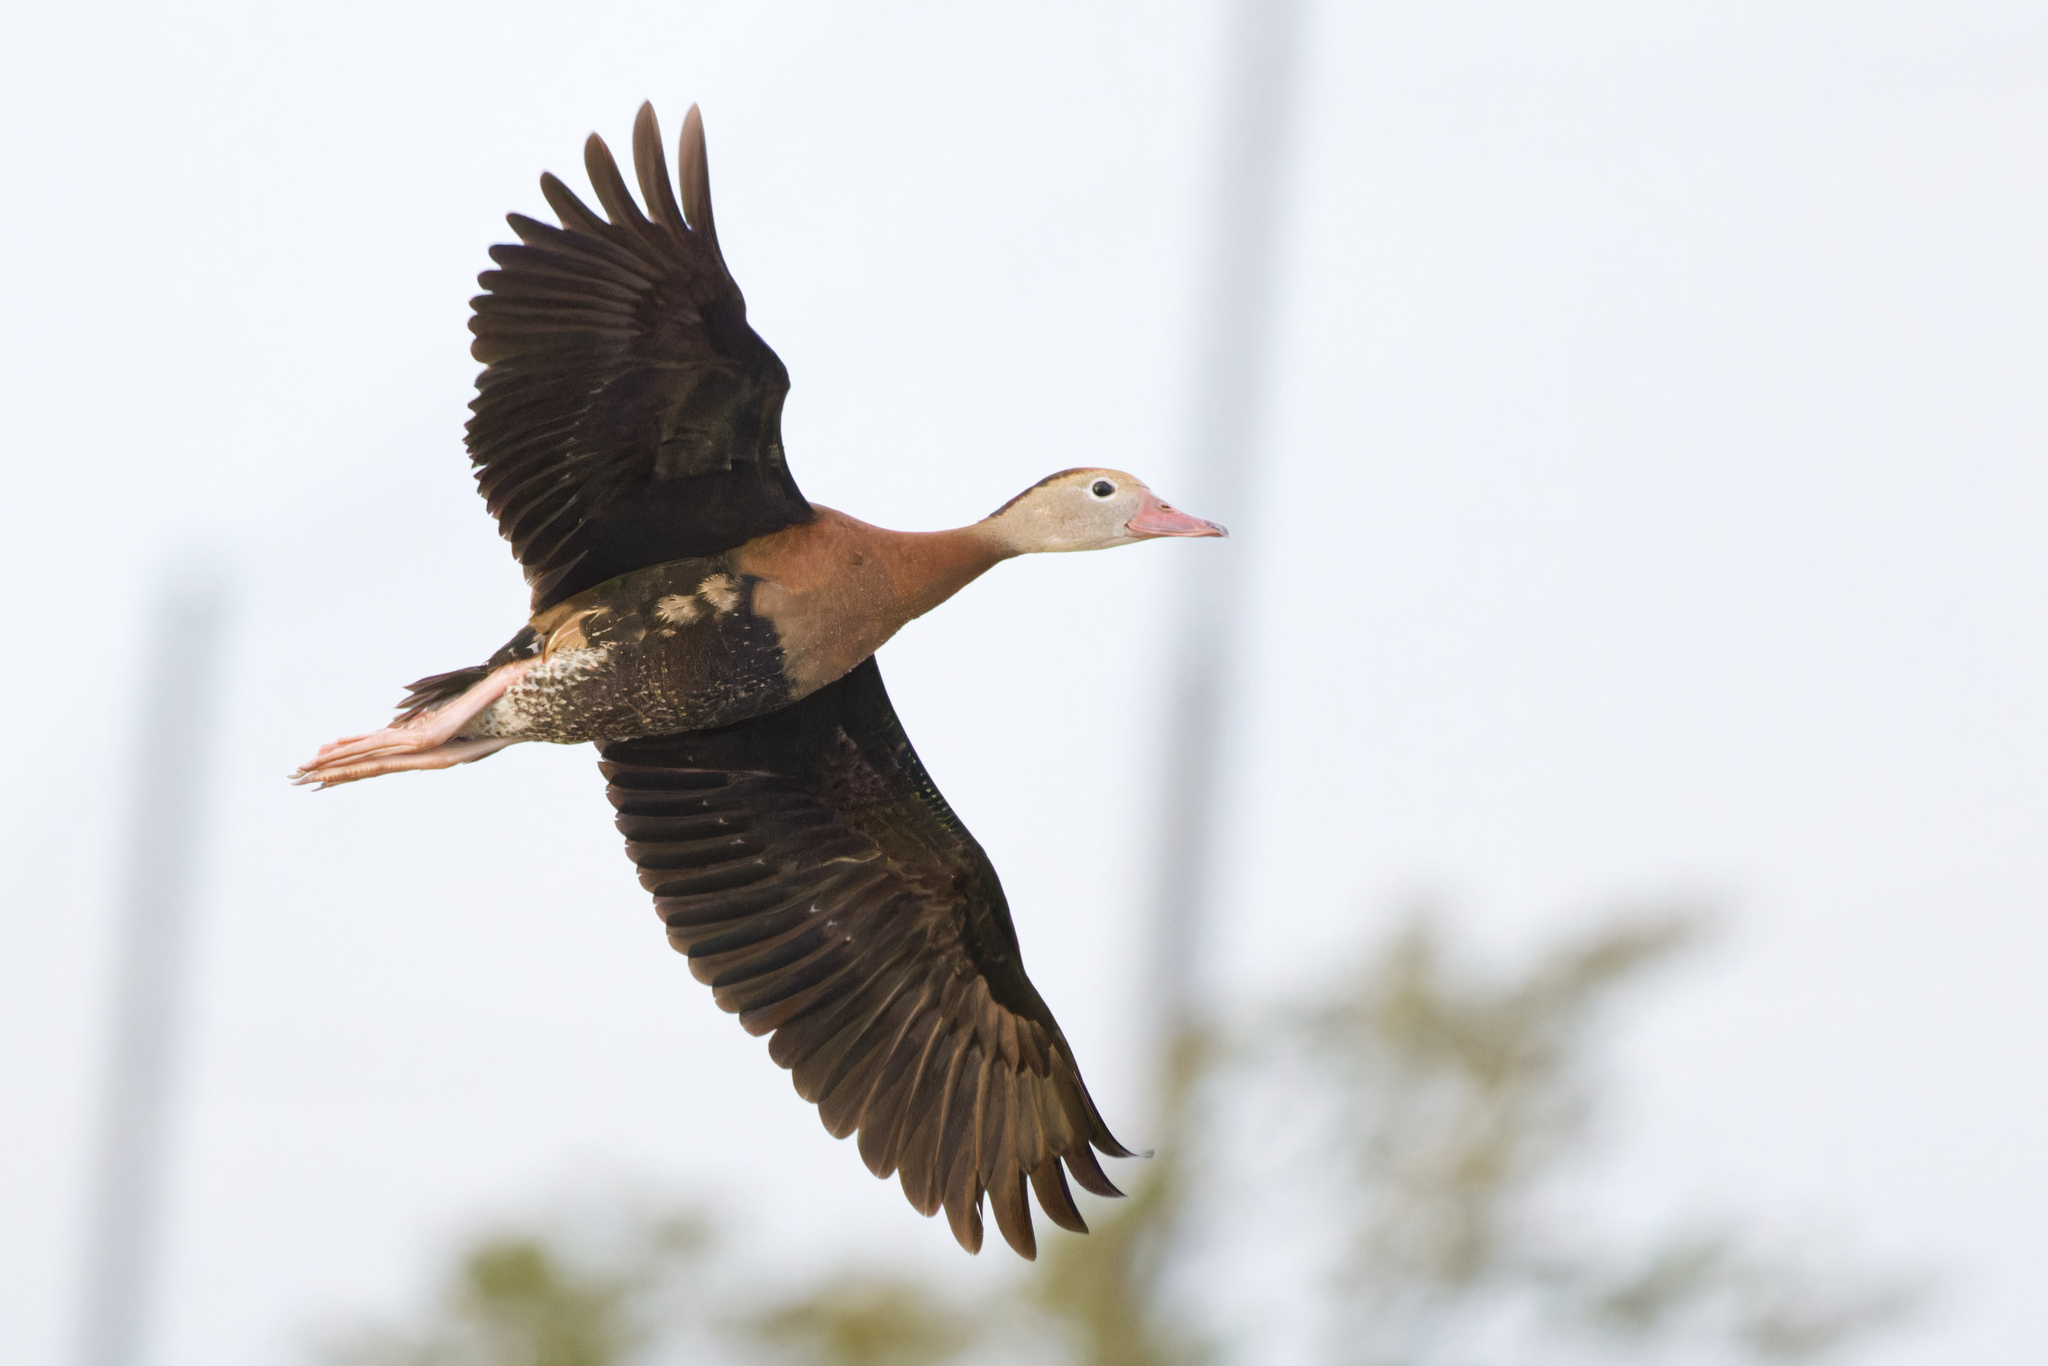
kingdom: Animalia
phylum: Chordata
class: Aves
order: Anseriformes
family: Anatidae
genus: Dendrocygna
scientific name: Dendrocygna autumnalis
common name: Black-bellied whistling duck
